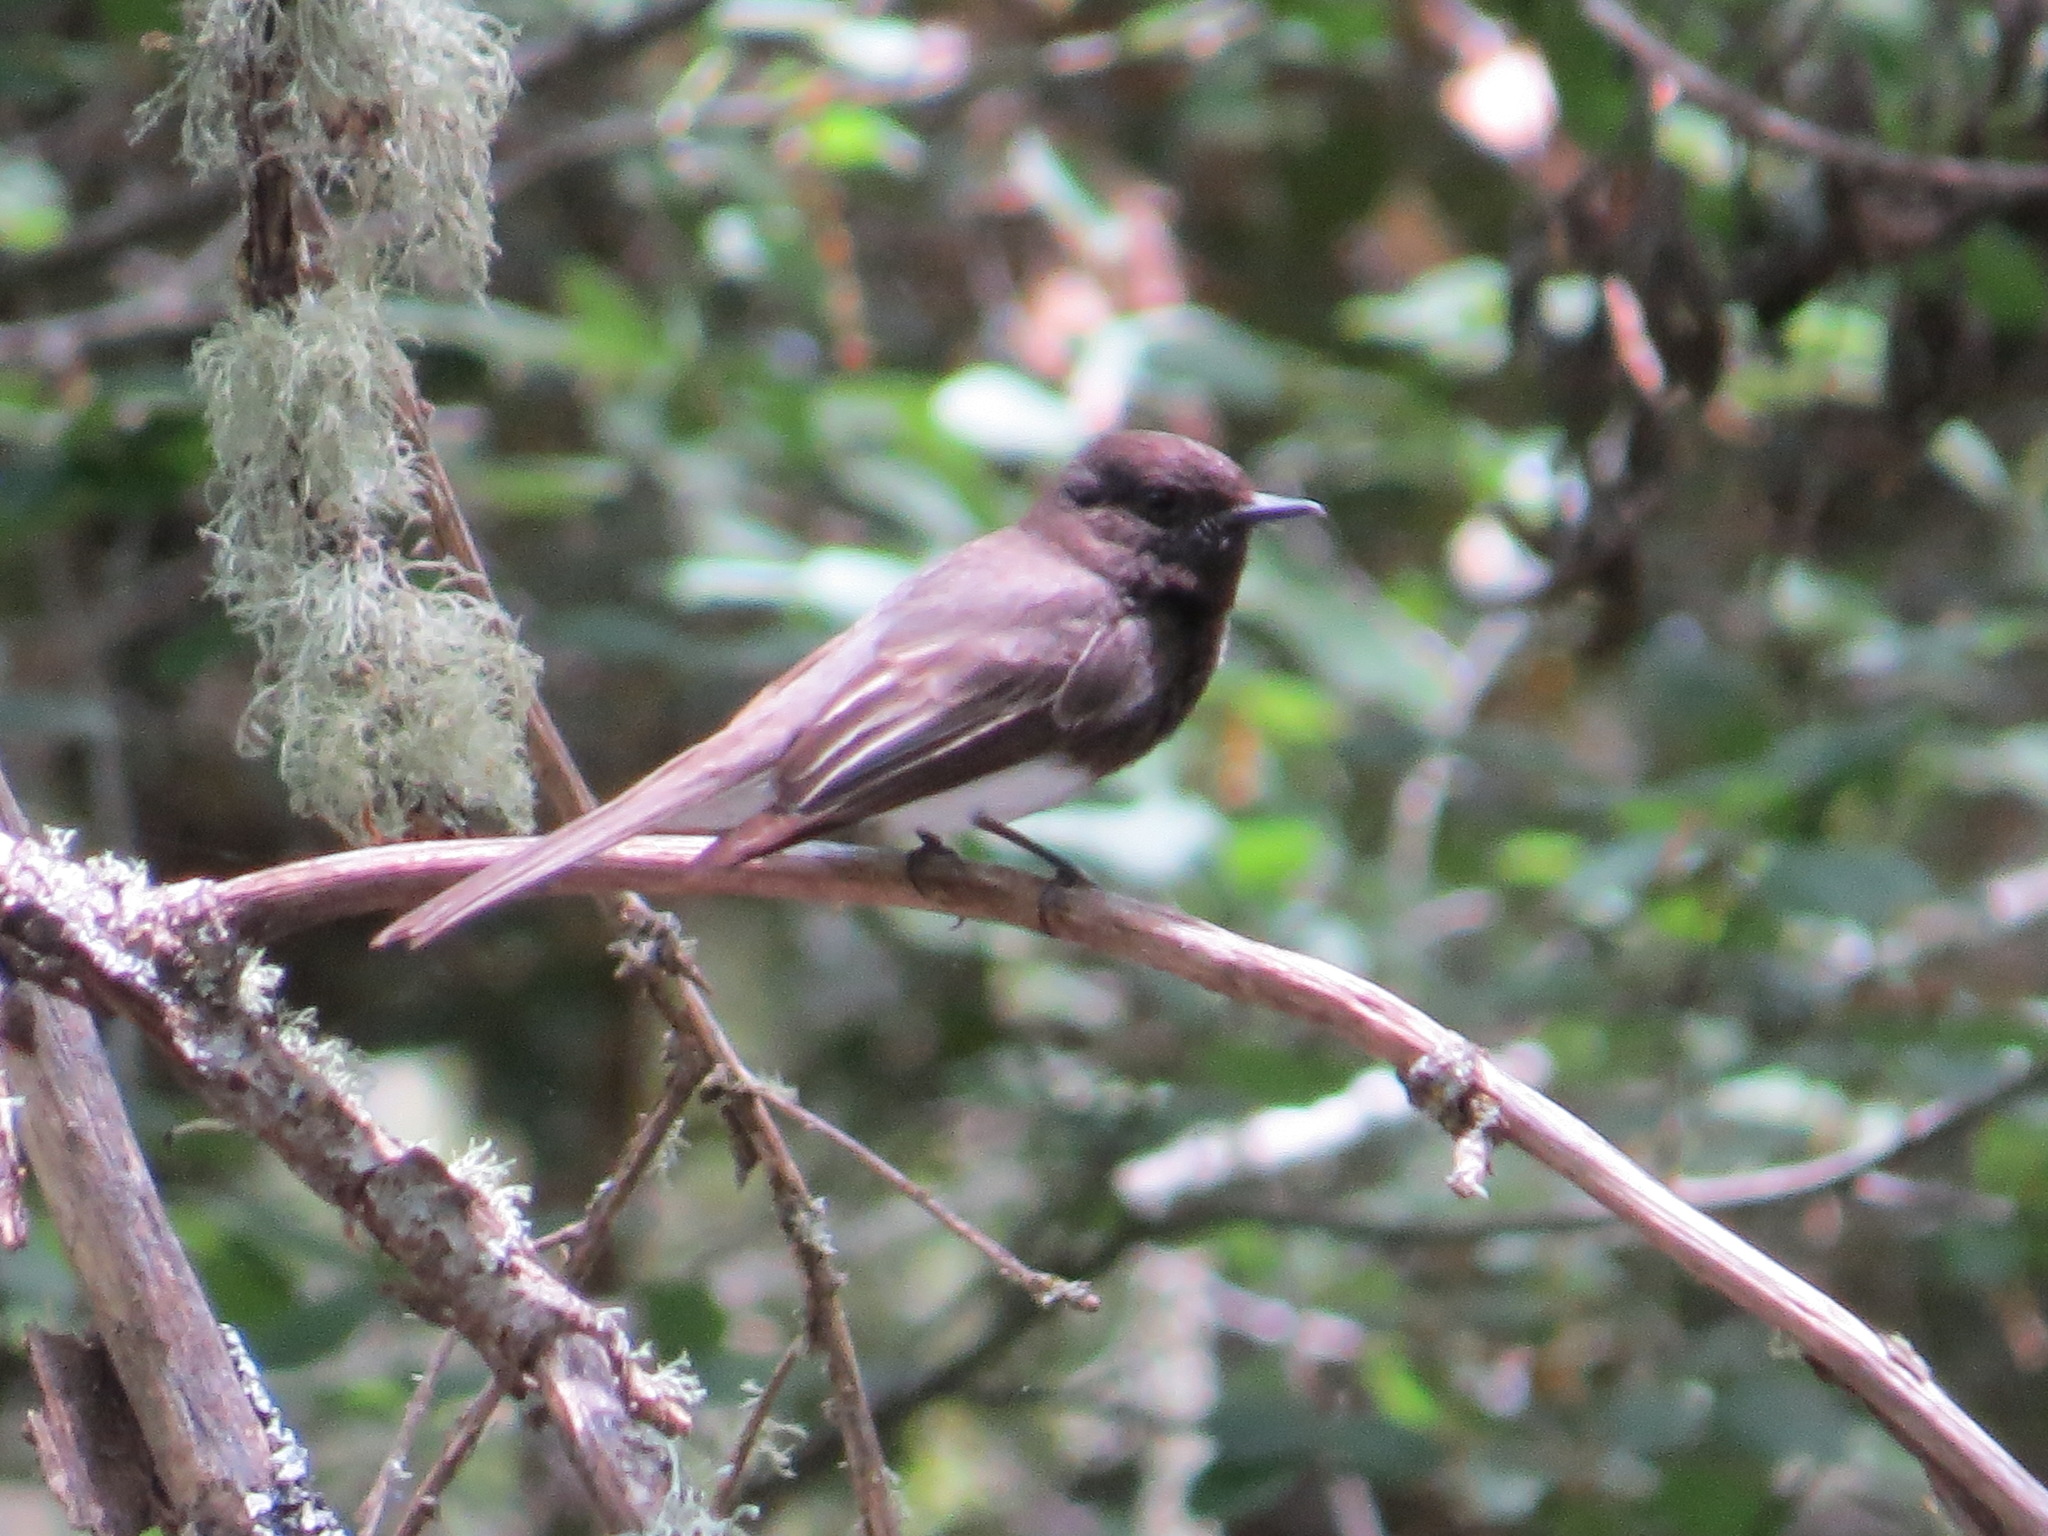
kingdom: Animalia
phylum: Chordata
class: Aves
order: Passeriformes
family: Tyrannidae
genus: Sayornis
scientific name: Sayornis nigricans
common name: Black phoebe
